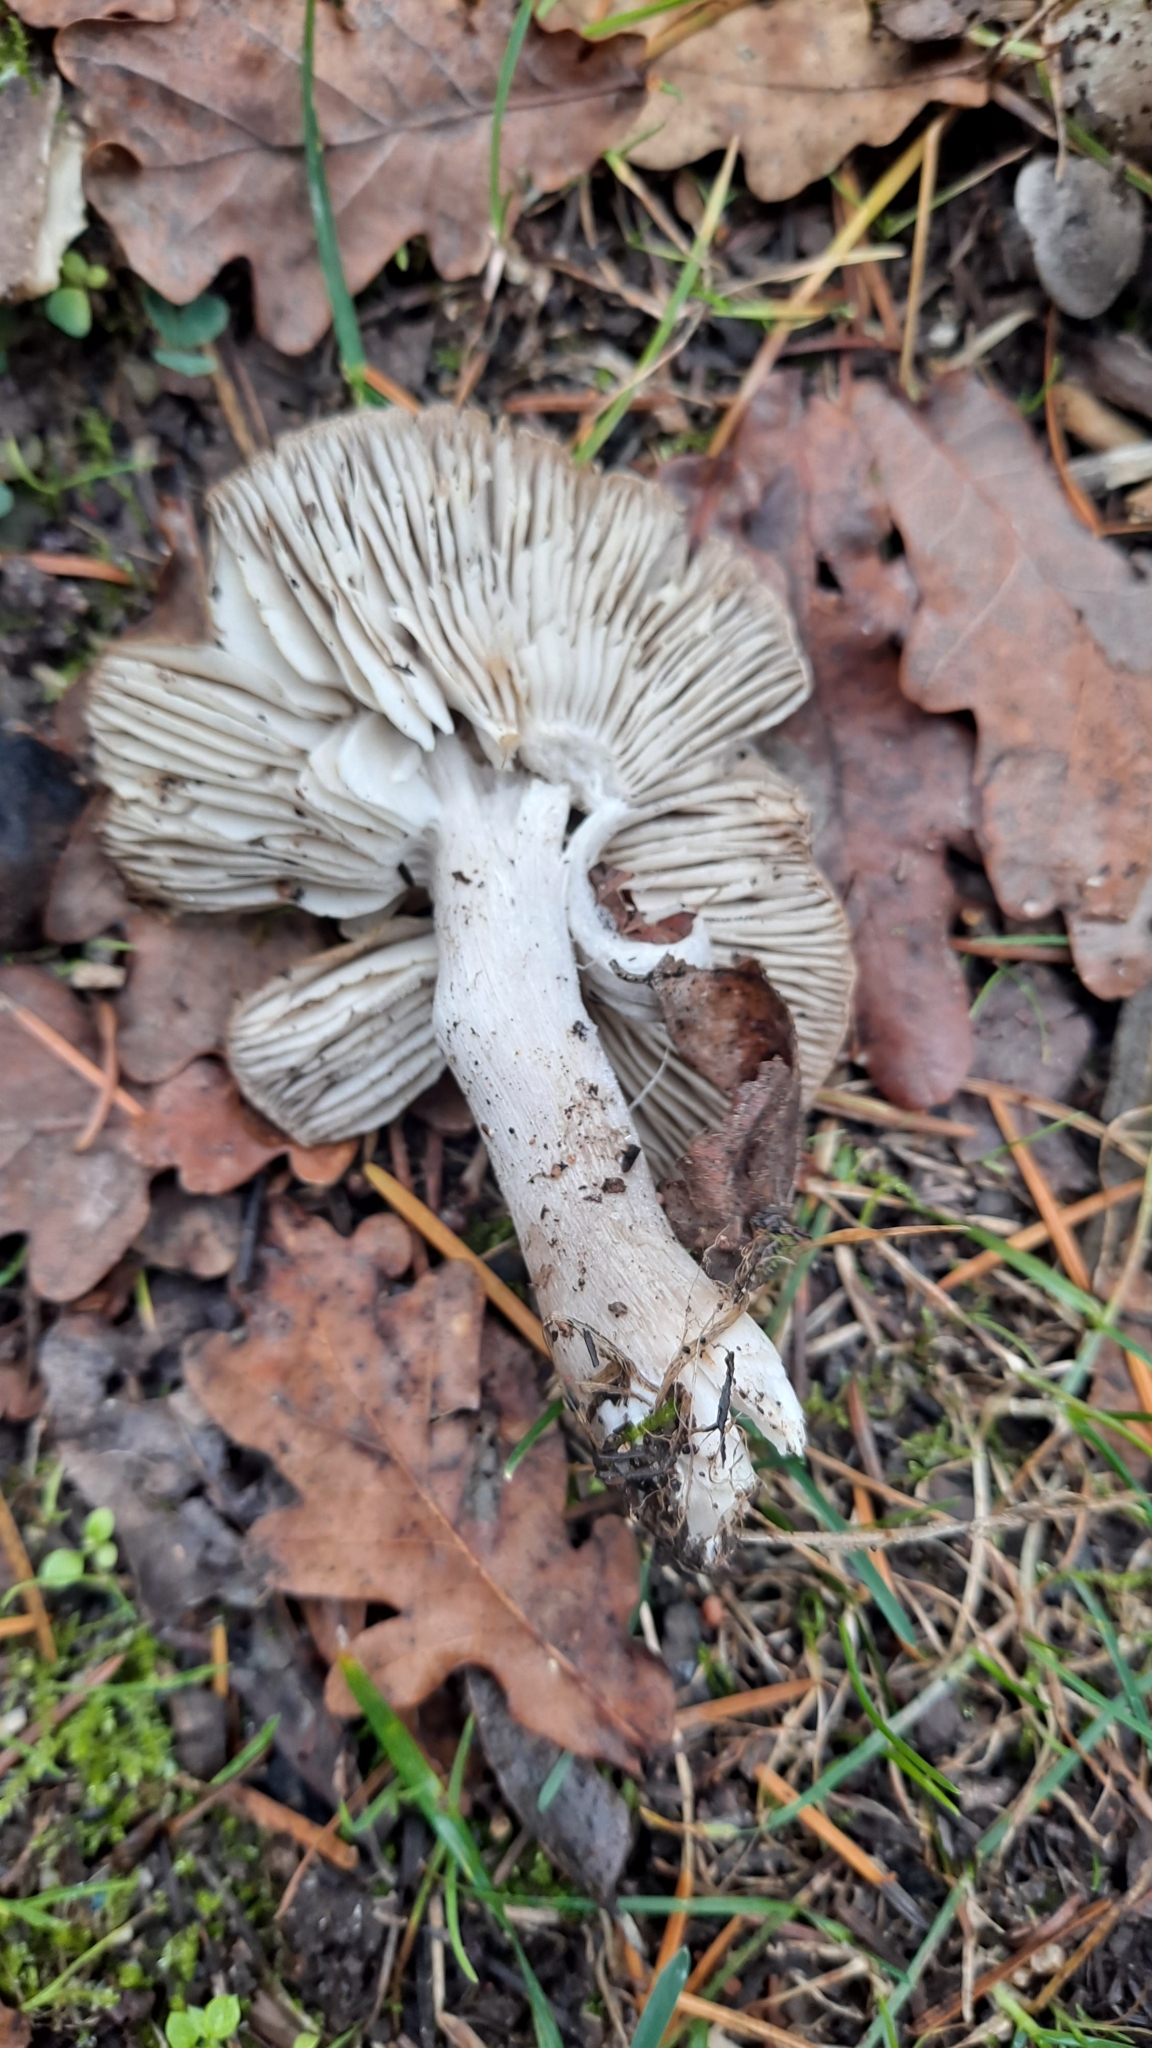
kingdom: Fungi
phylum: Basidiomycota
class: Agaricomycetes
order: Agaricales
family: Tricholomataceae
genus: Tricholoma
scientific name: Tricholoma terreum
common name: Grey knight
